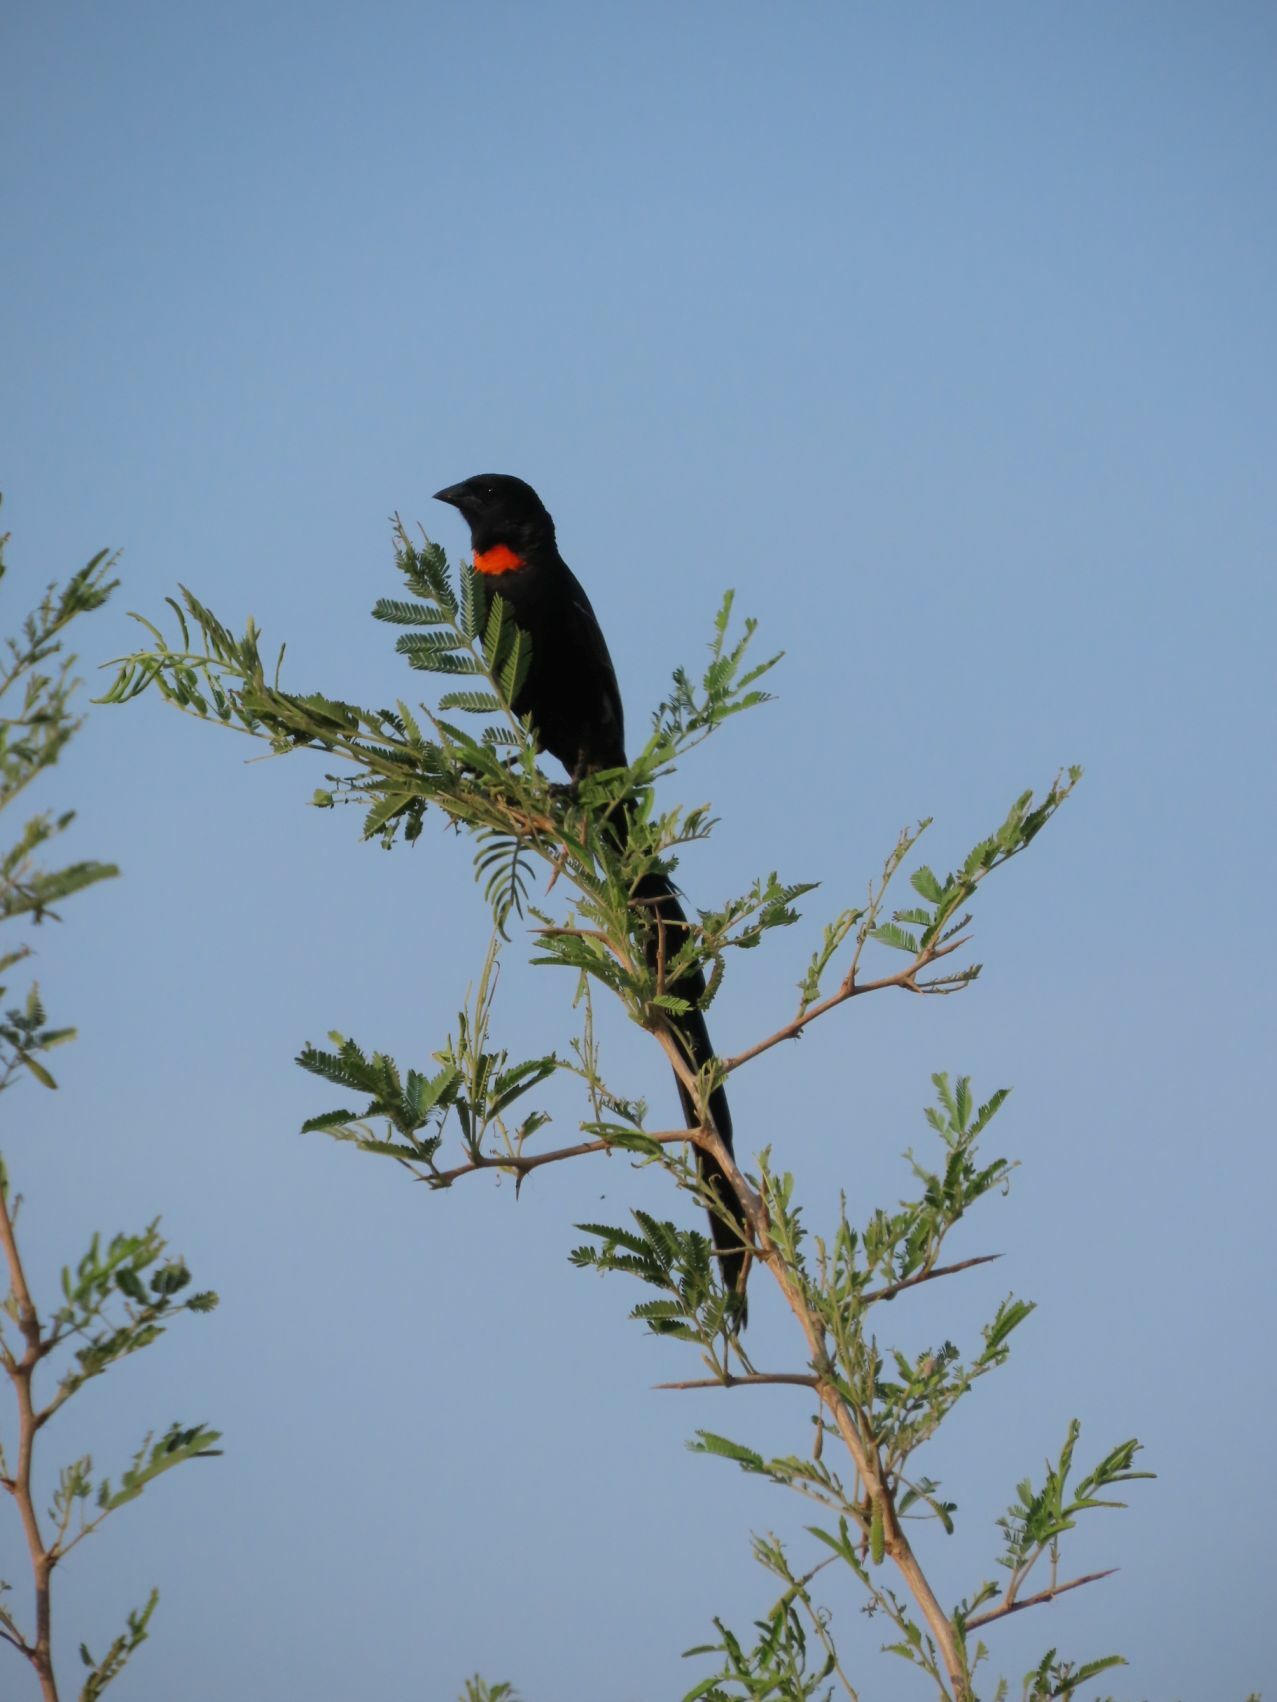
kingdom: Animalia
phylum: Chordata
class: Aves
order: Passeriformes
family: Ploceidae
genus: Euplectes
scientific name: Euplectes ardens
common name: Red-collared widowbird
